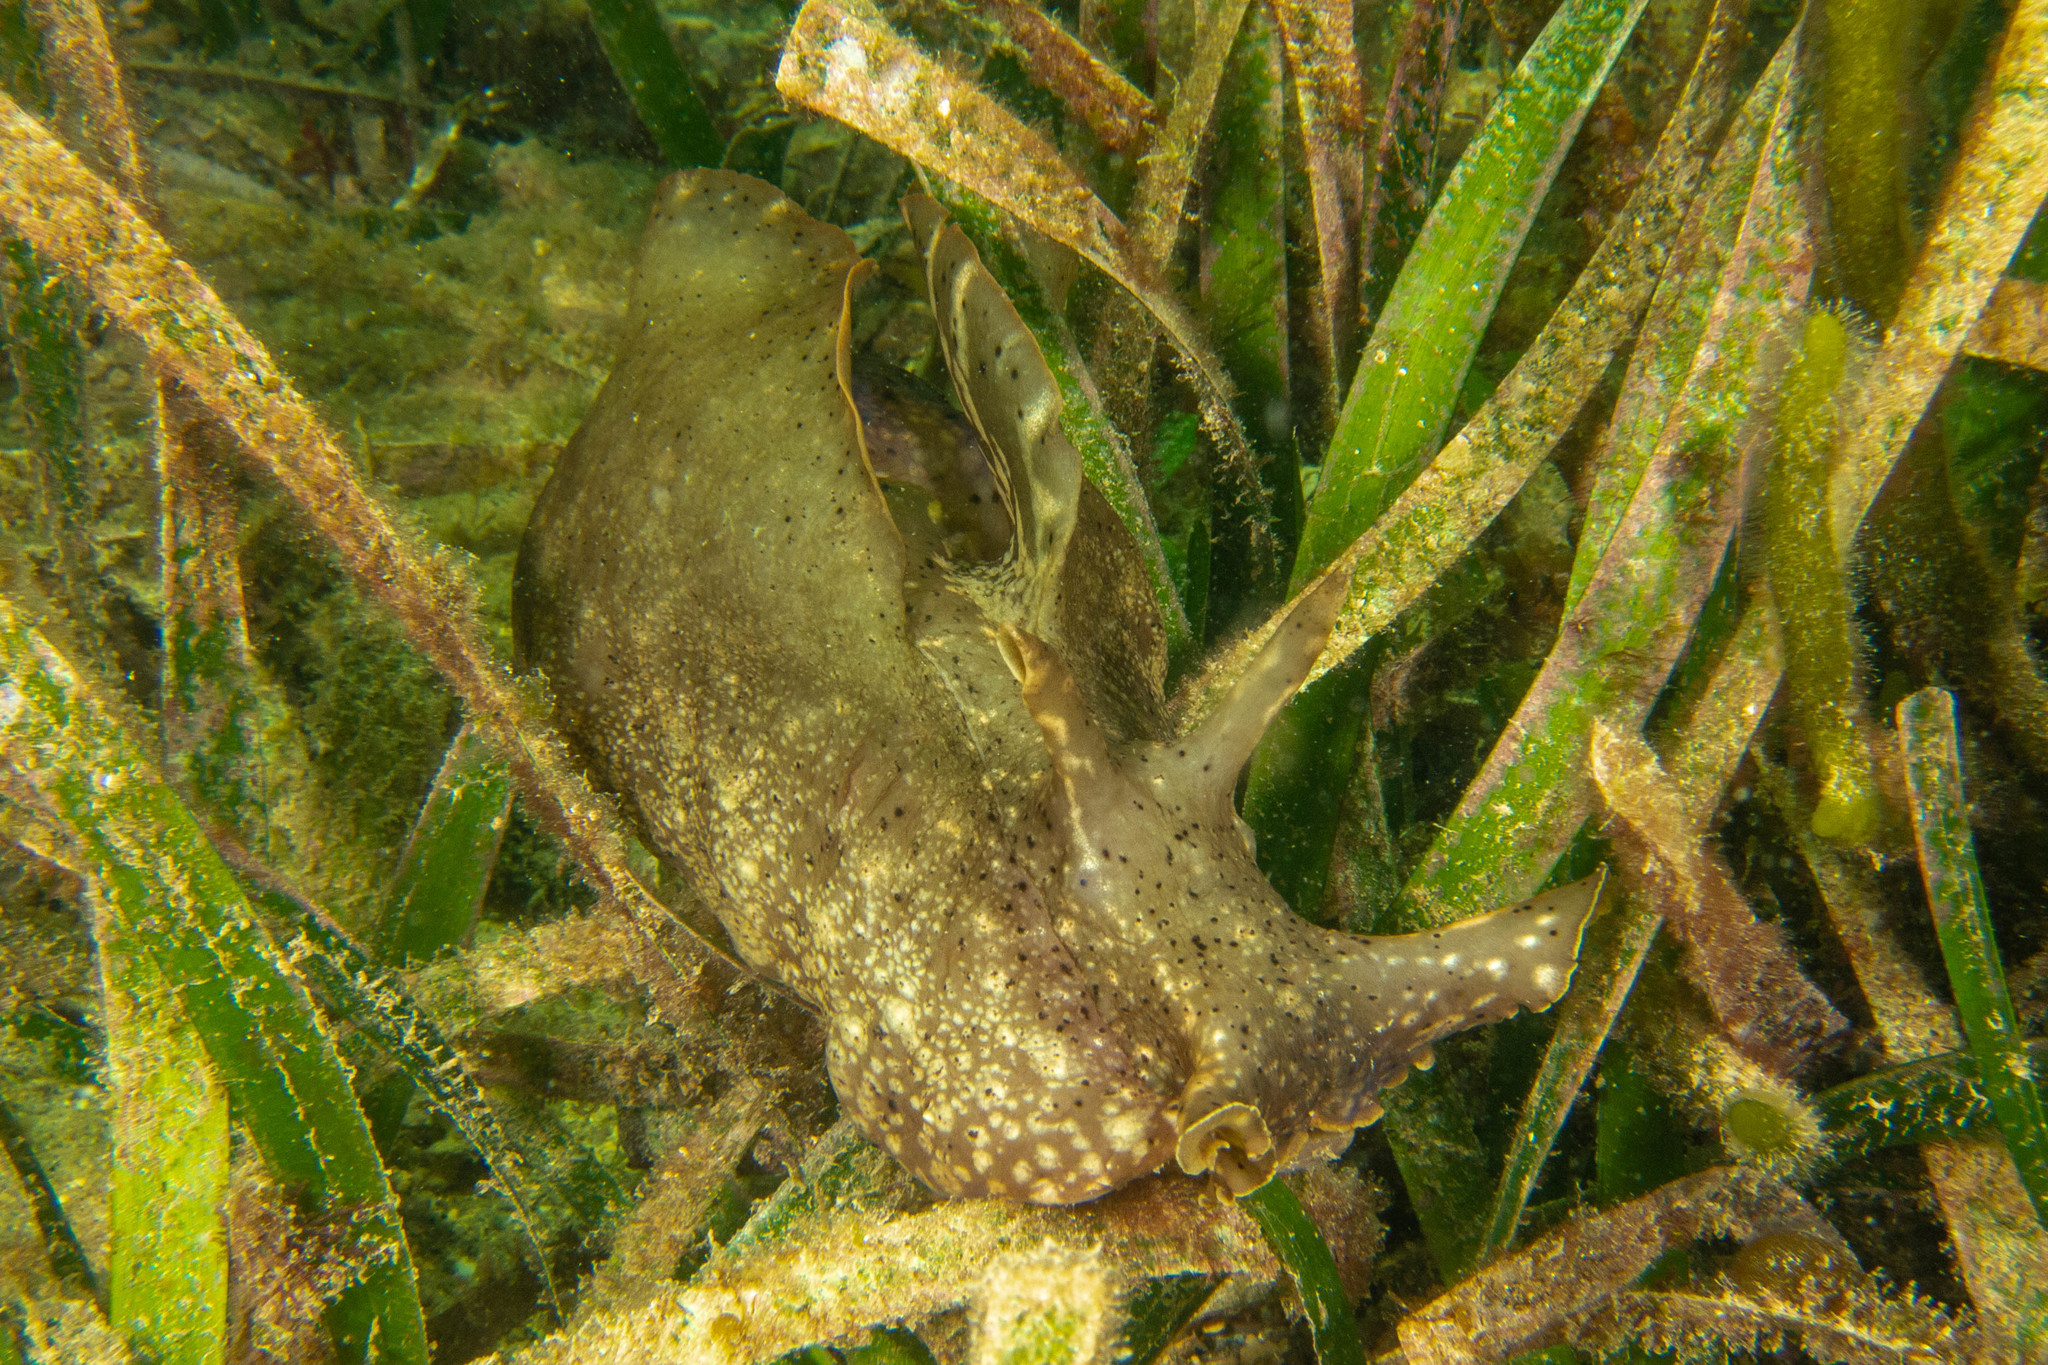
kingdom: Animalia
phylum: Mollusca
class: Gastropoda
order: Aplysiida
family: Aplysiidae
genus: Aplysia
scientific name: Aplysia reticulata
